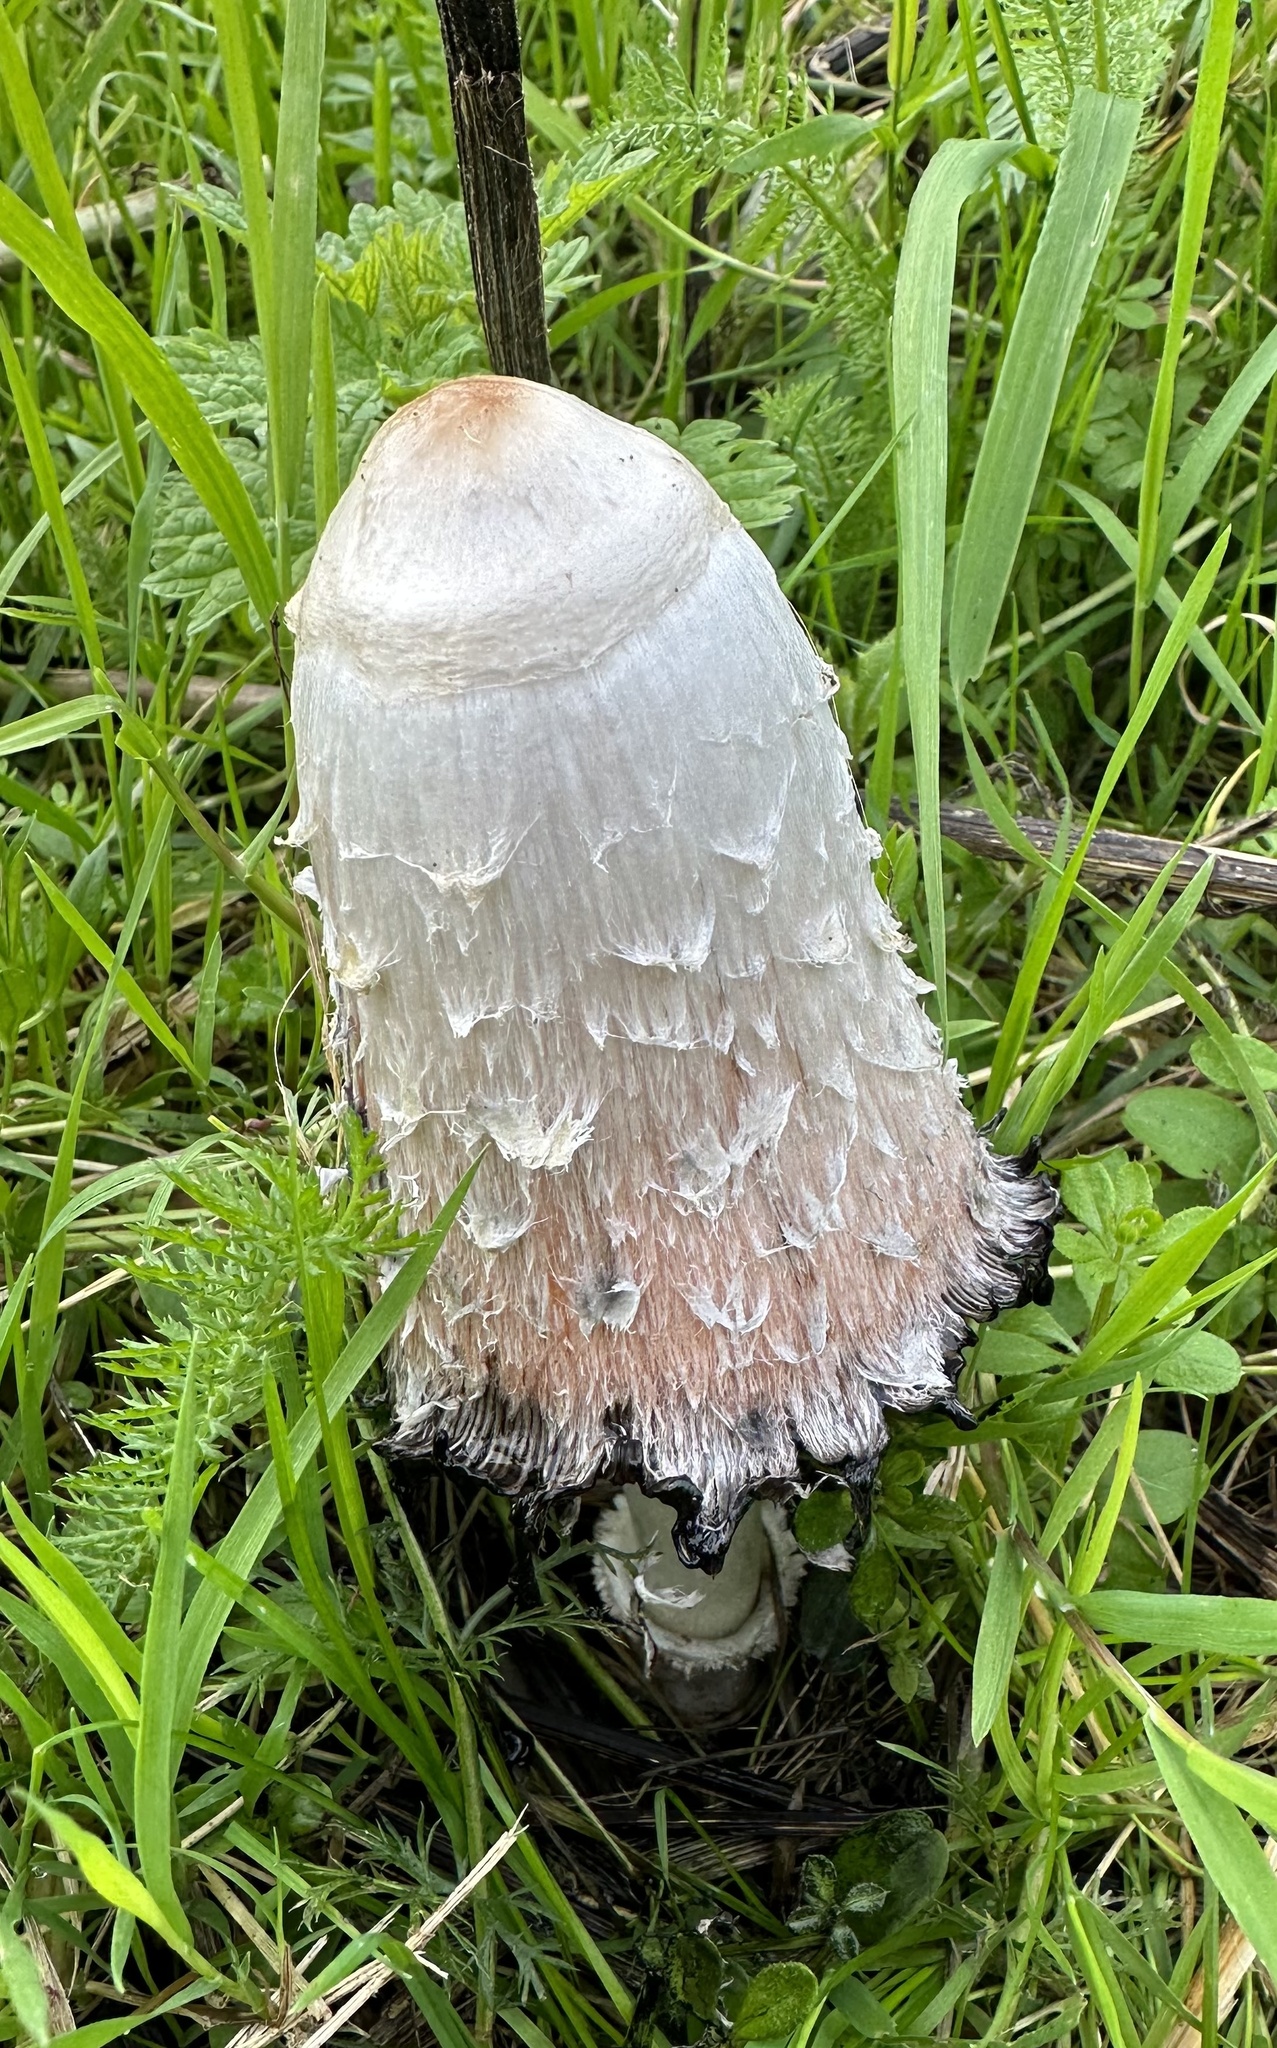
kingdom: Fungi
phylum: Basidiomycota
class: Agaricomycetes
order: Agaricales
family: Agaricaceae
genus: Coprinus
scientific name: Coprinus comatus
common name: Lawyer's wig
